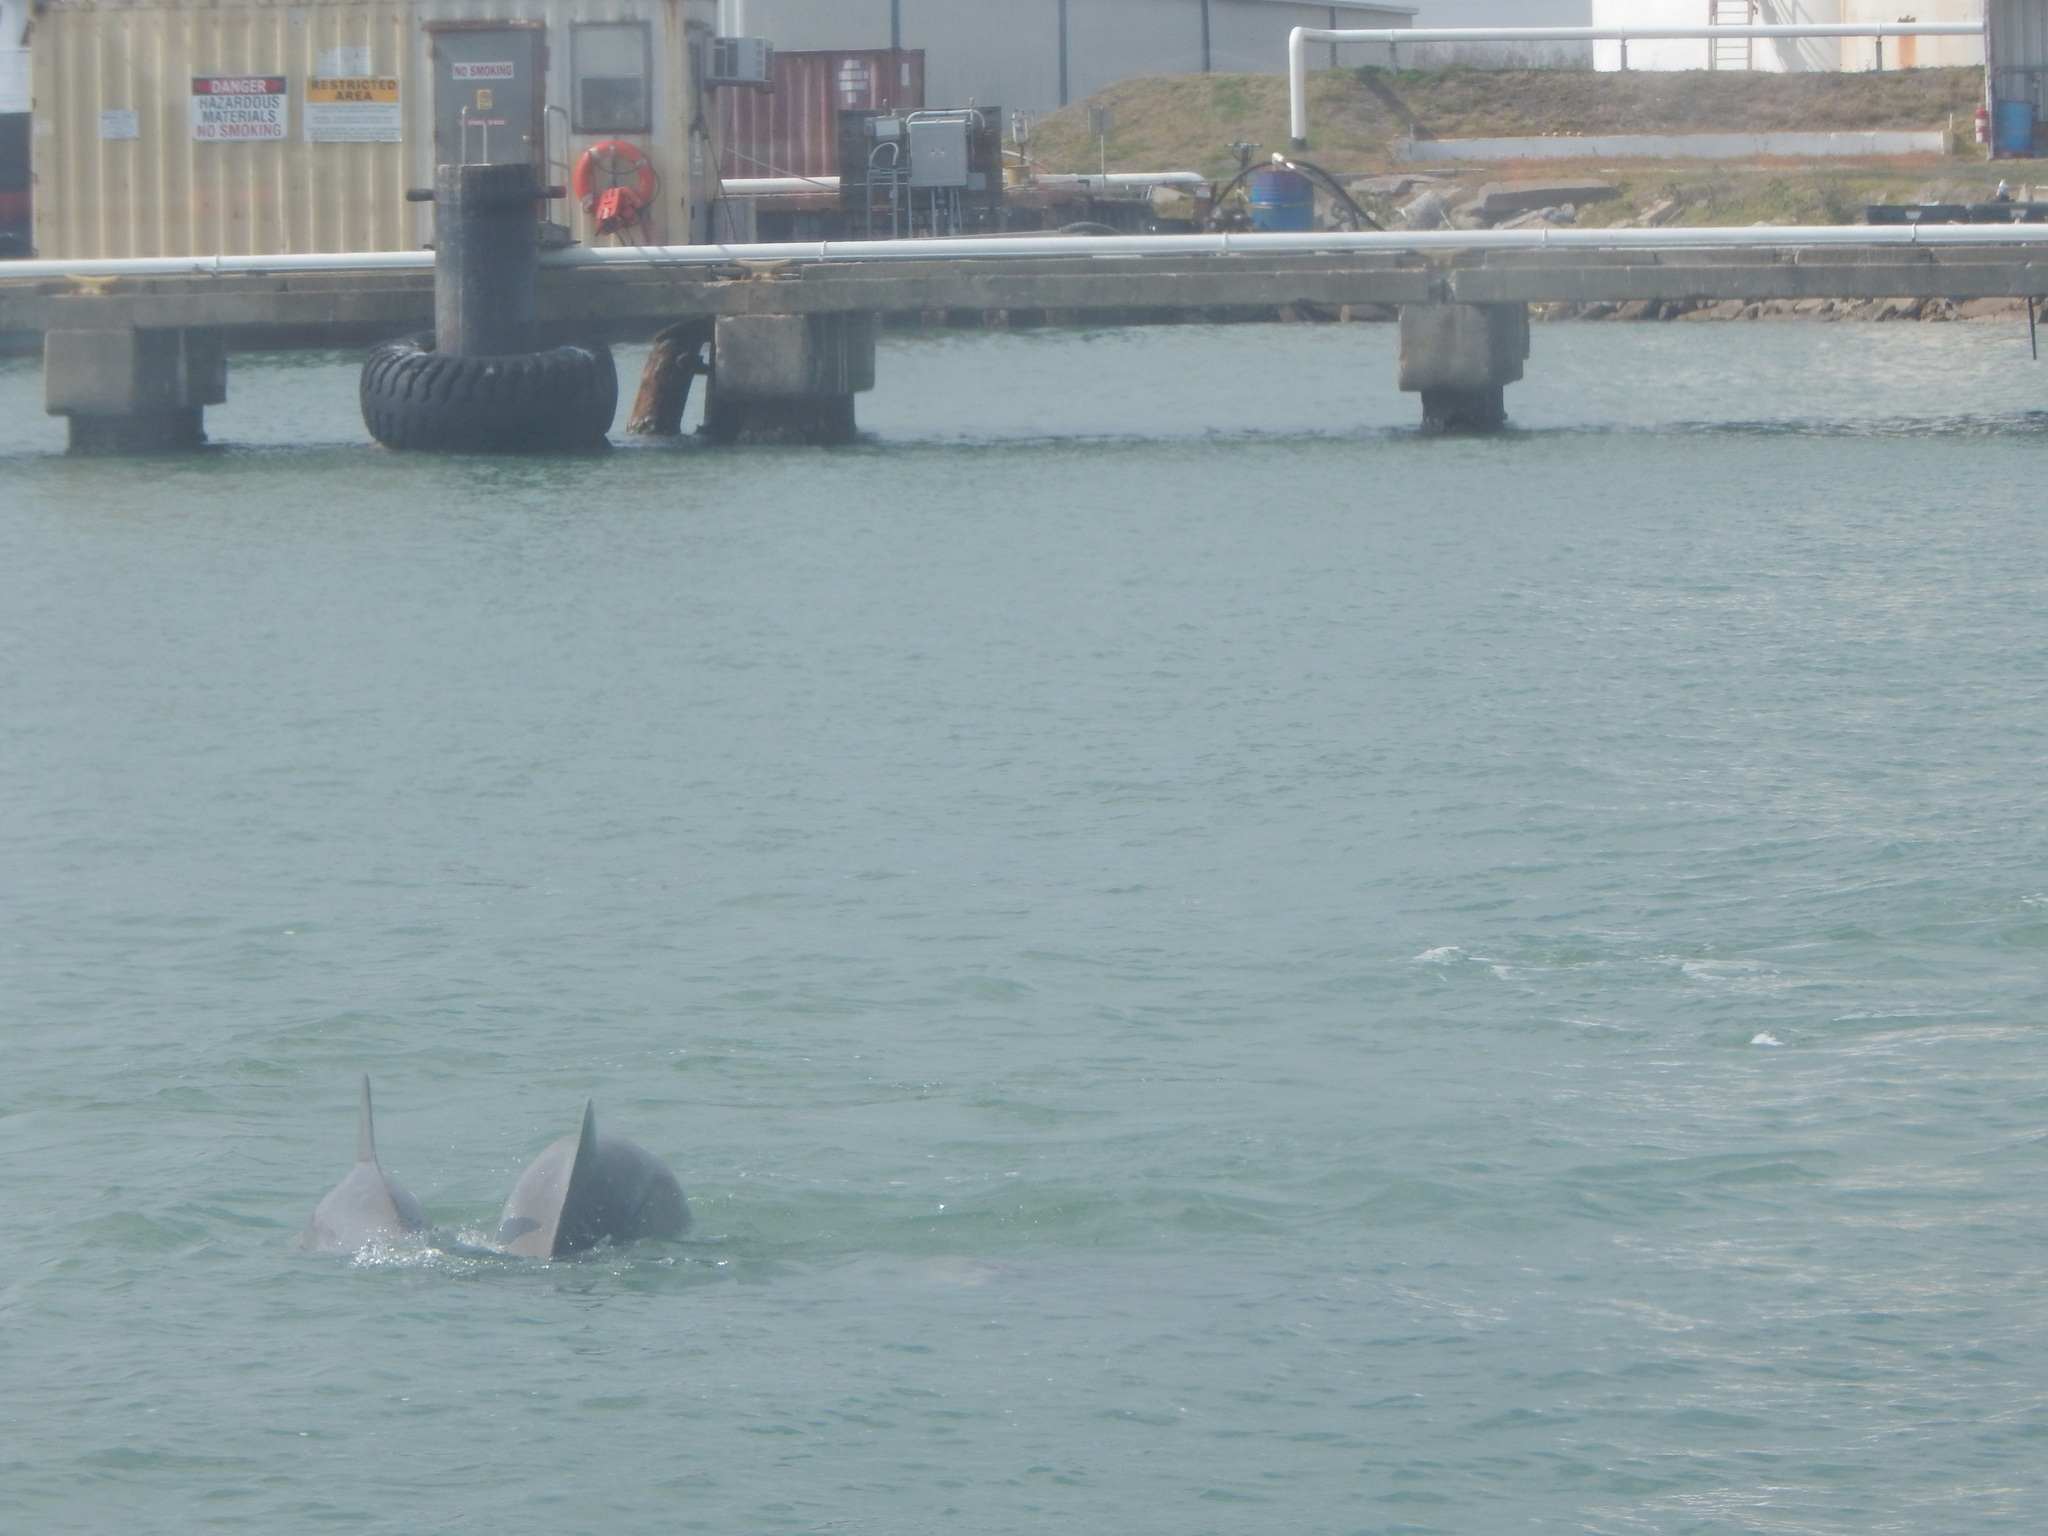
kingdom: Animalia
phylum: Chordata
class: Mammalia
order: Cetacea
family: Delphinidae
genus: Tursiops
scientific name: Tursiops truncatus
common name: Bottlenose dolphin
